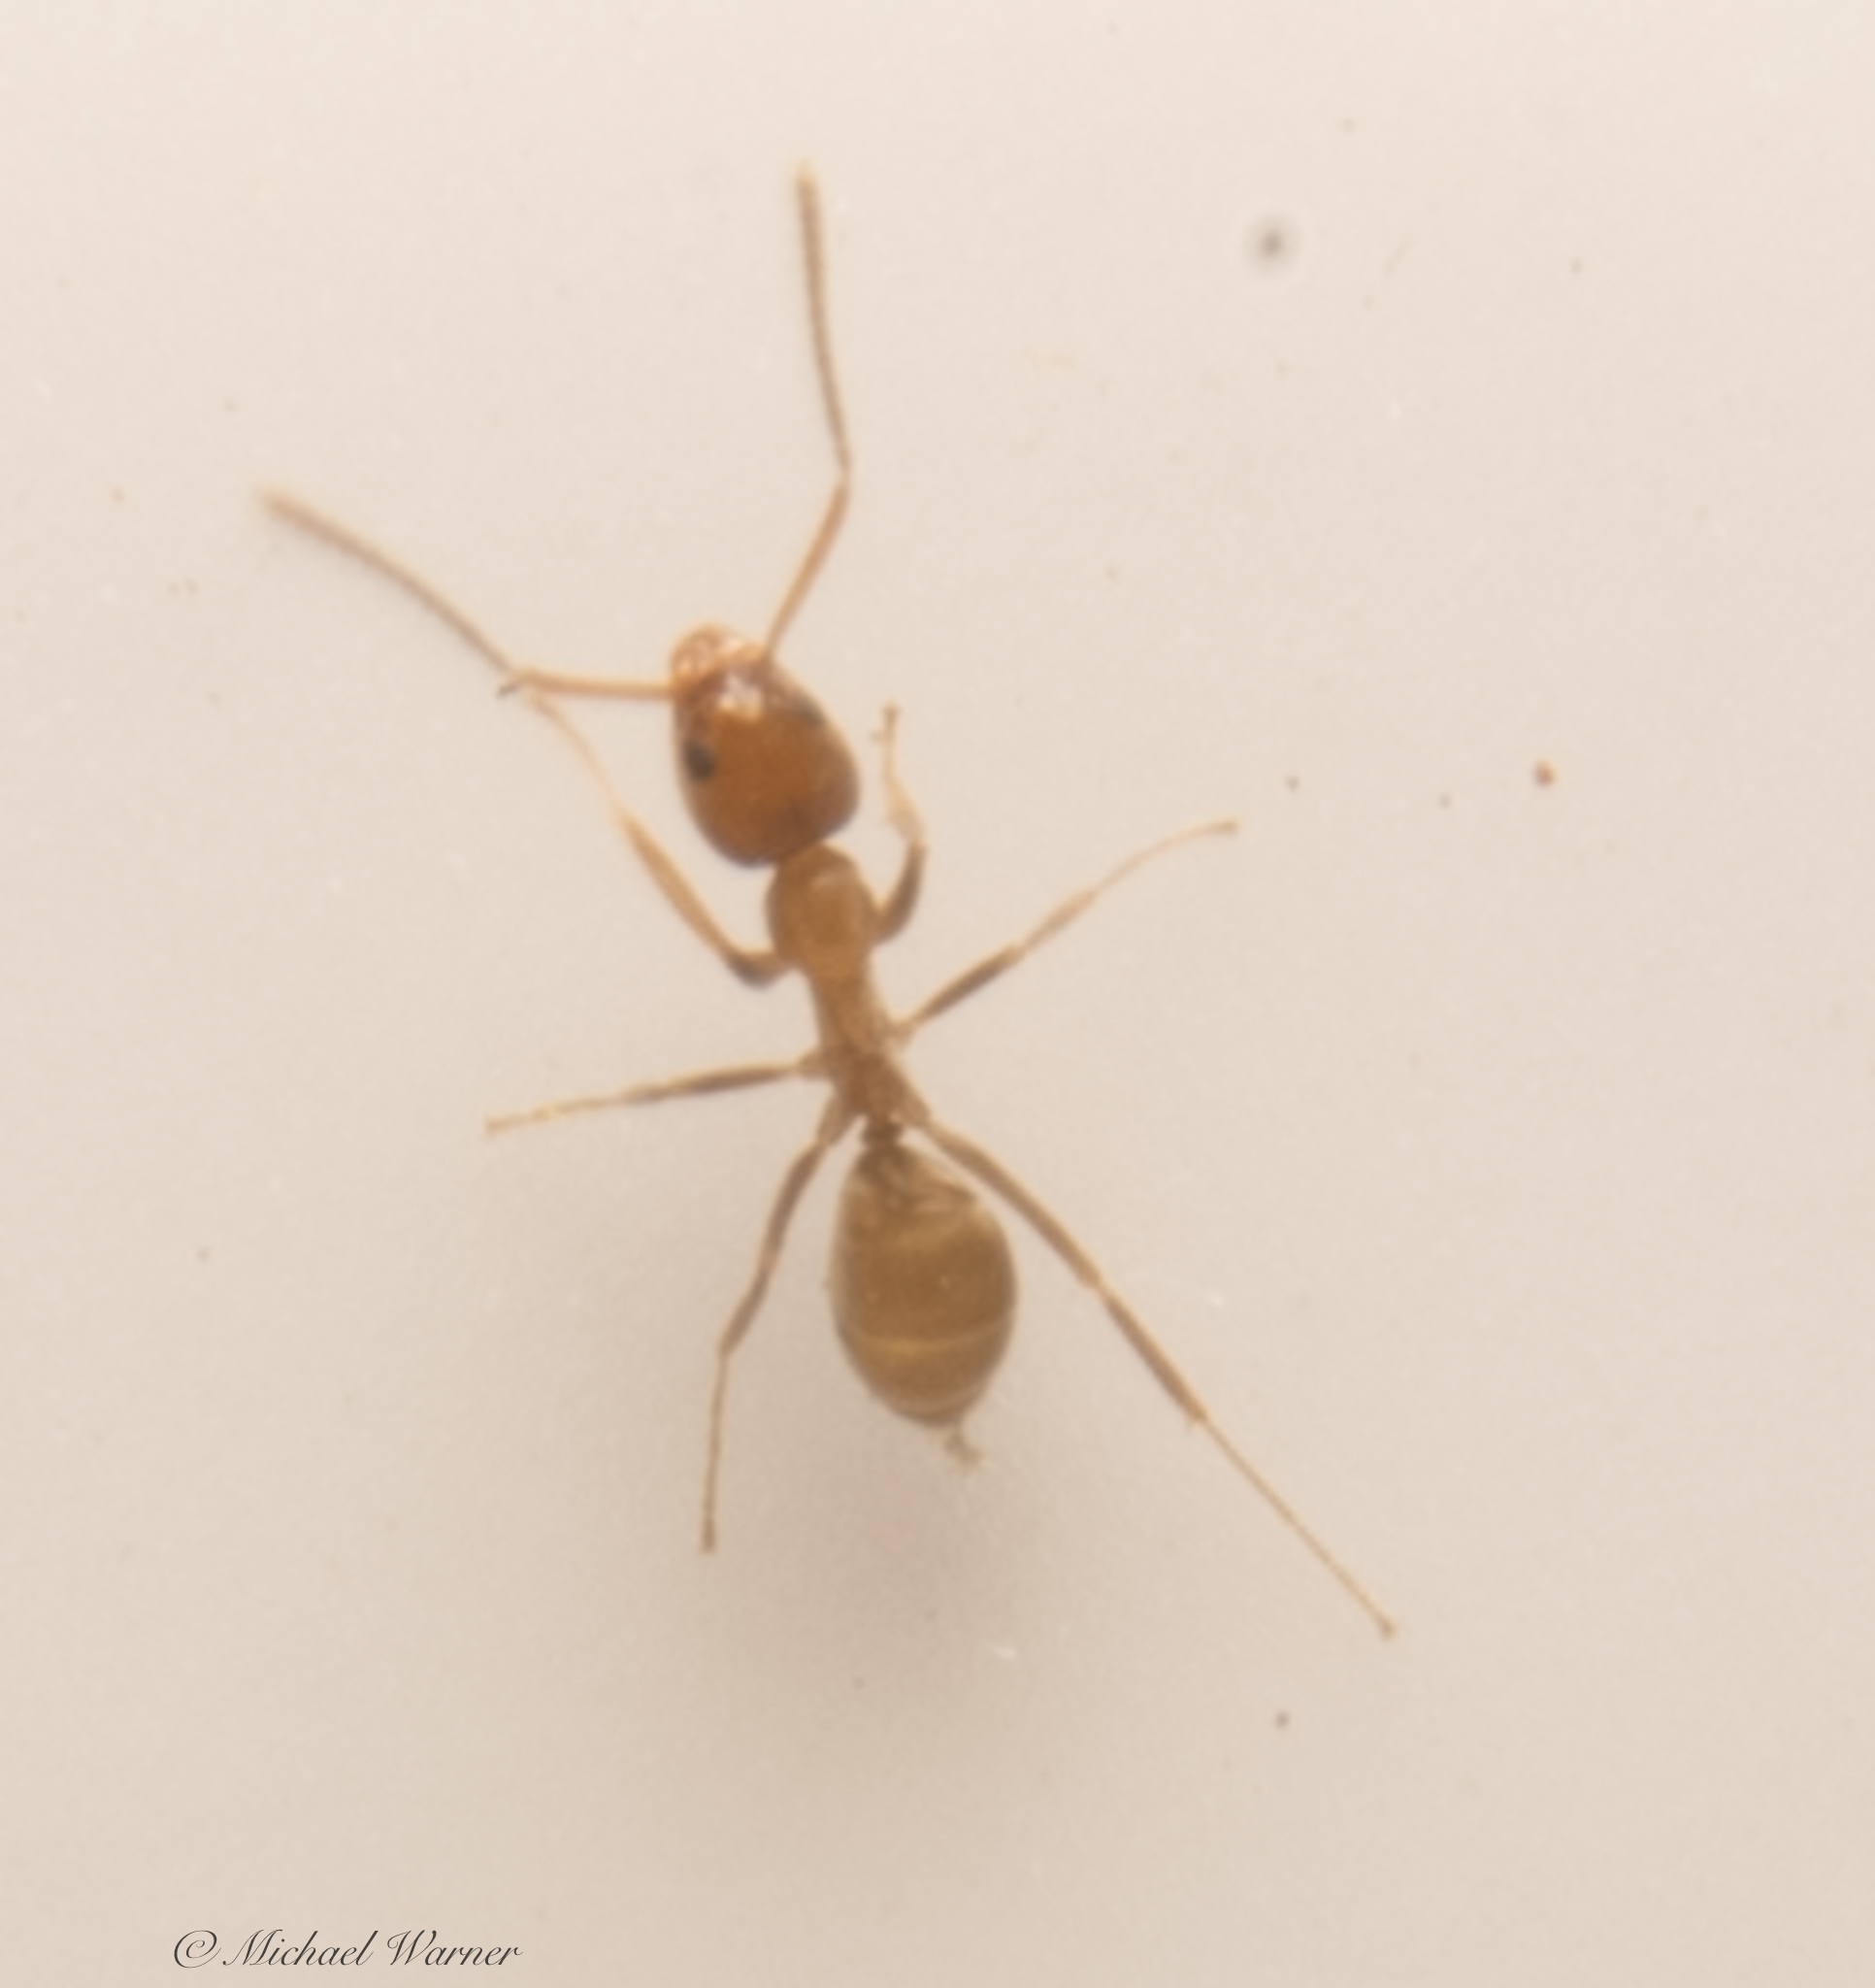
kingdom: Animalia
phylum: Arthropoda
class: Insecta
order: Hymenoptera
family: Formicidae
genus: Linepithema
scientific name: Linepithema humile
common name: Argentine ant
